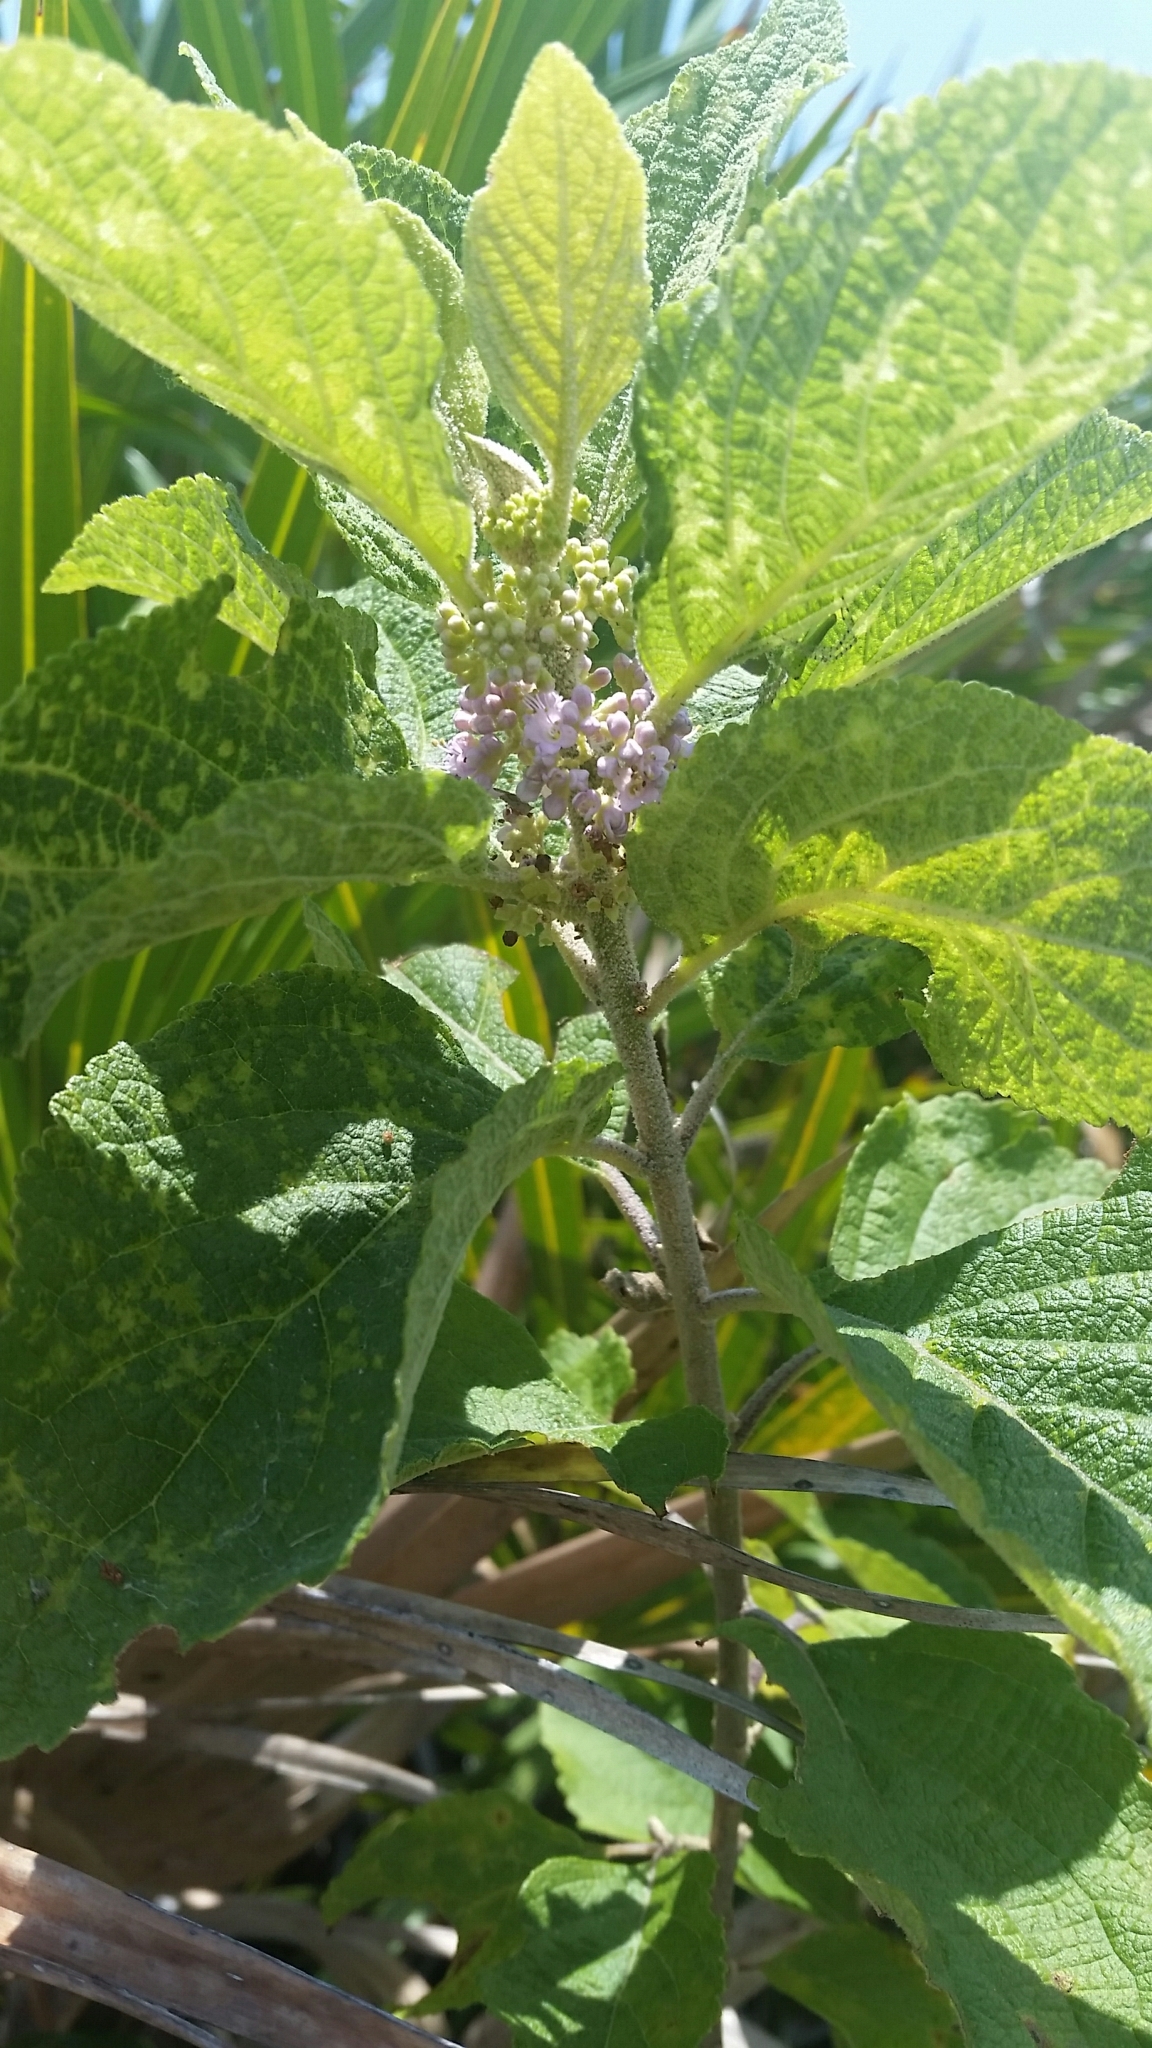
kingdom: Plantae
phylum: Tracheophyta
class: Magnoliopsida
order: Lamiales
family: Lamiaceae
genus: Callicarpa
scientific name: Callicarpa americana
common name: American beautyberry
